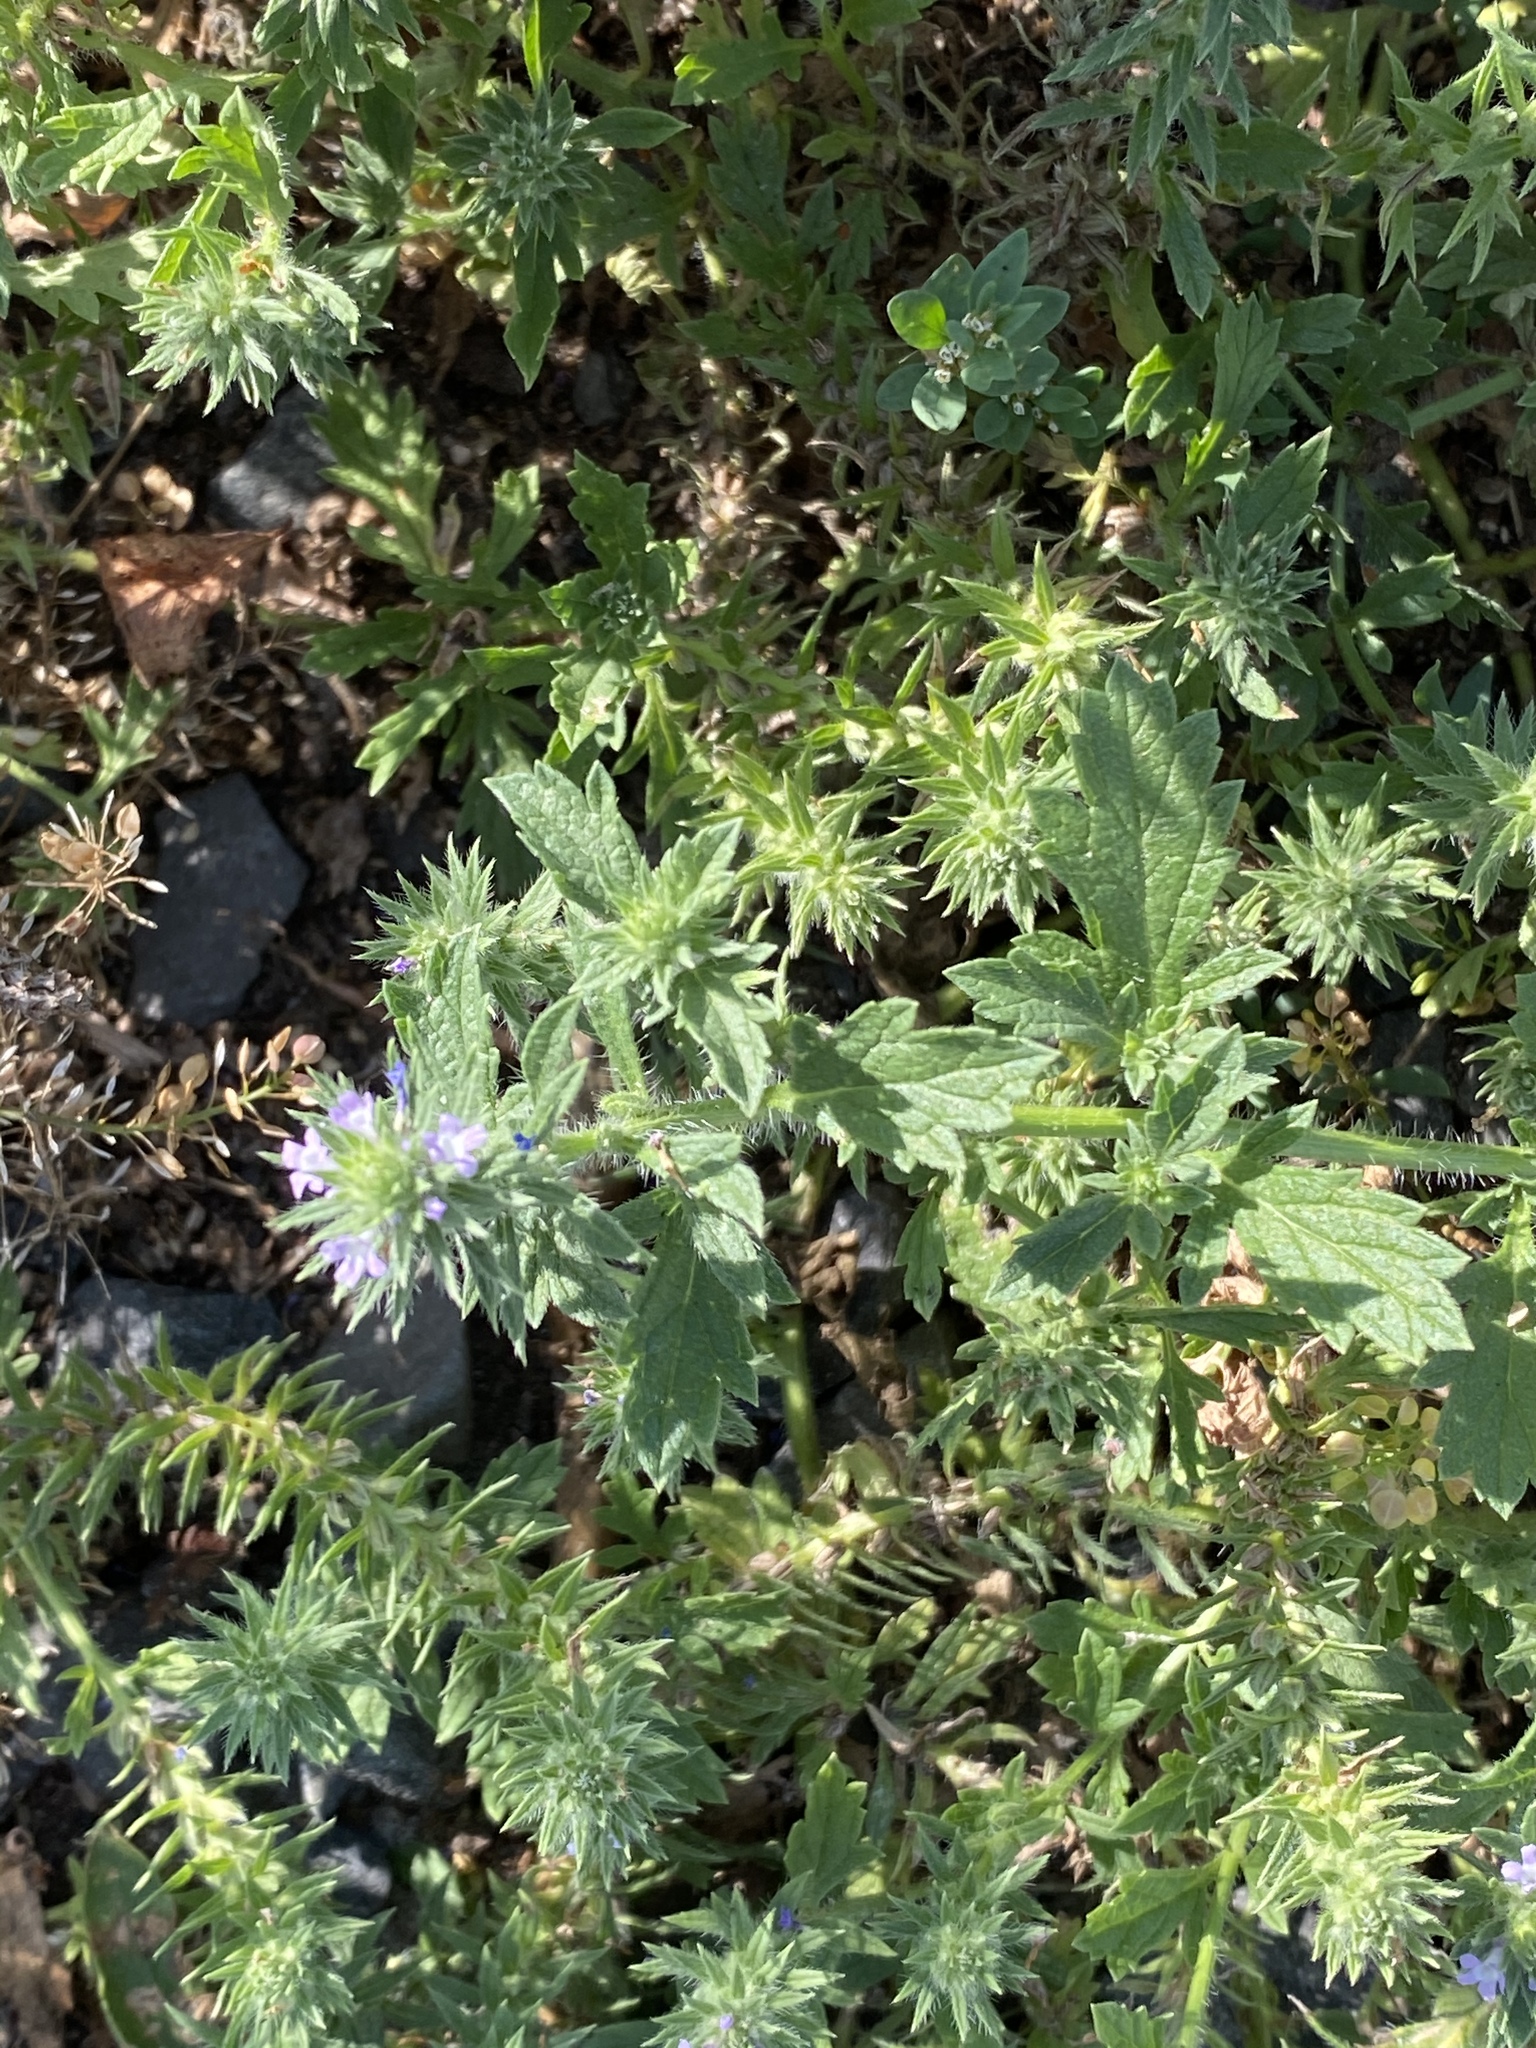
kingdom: Plantae
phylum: Tracheophyta
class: Magnoliopsida
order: Lamiales
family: Verbenaceae
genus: Verbena
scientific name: Verbena bracteata
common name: Bracted vervain
